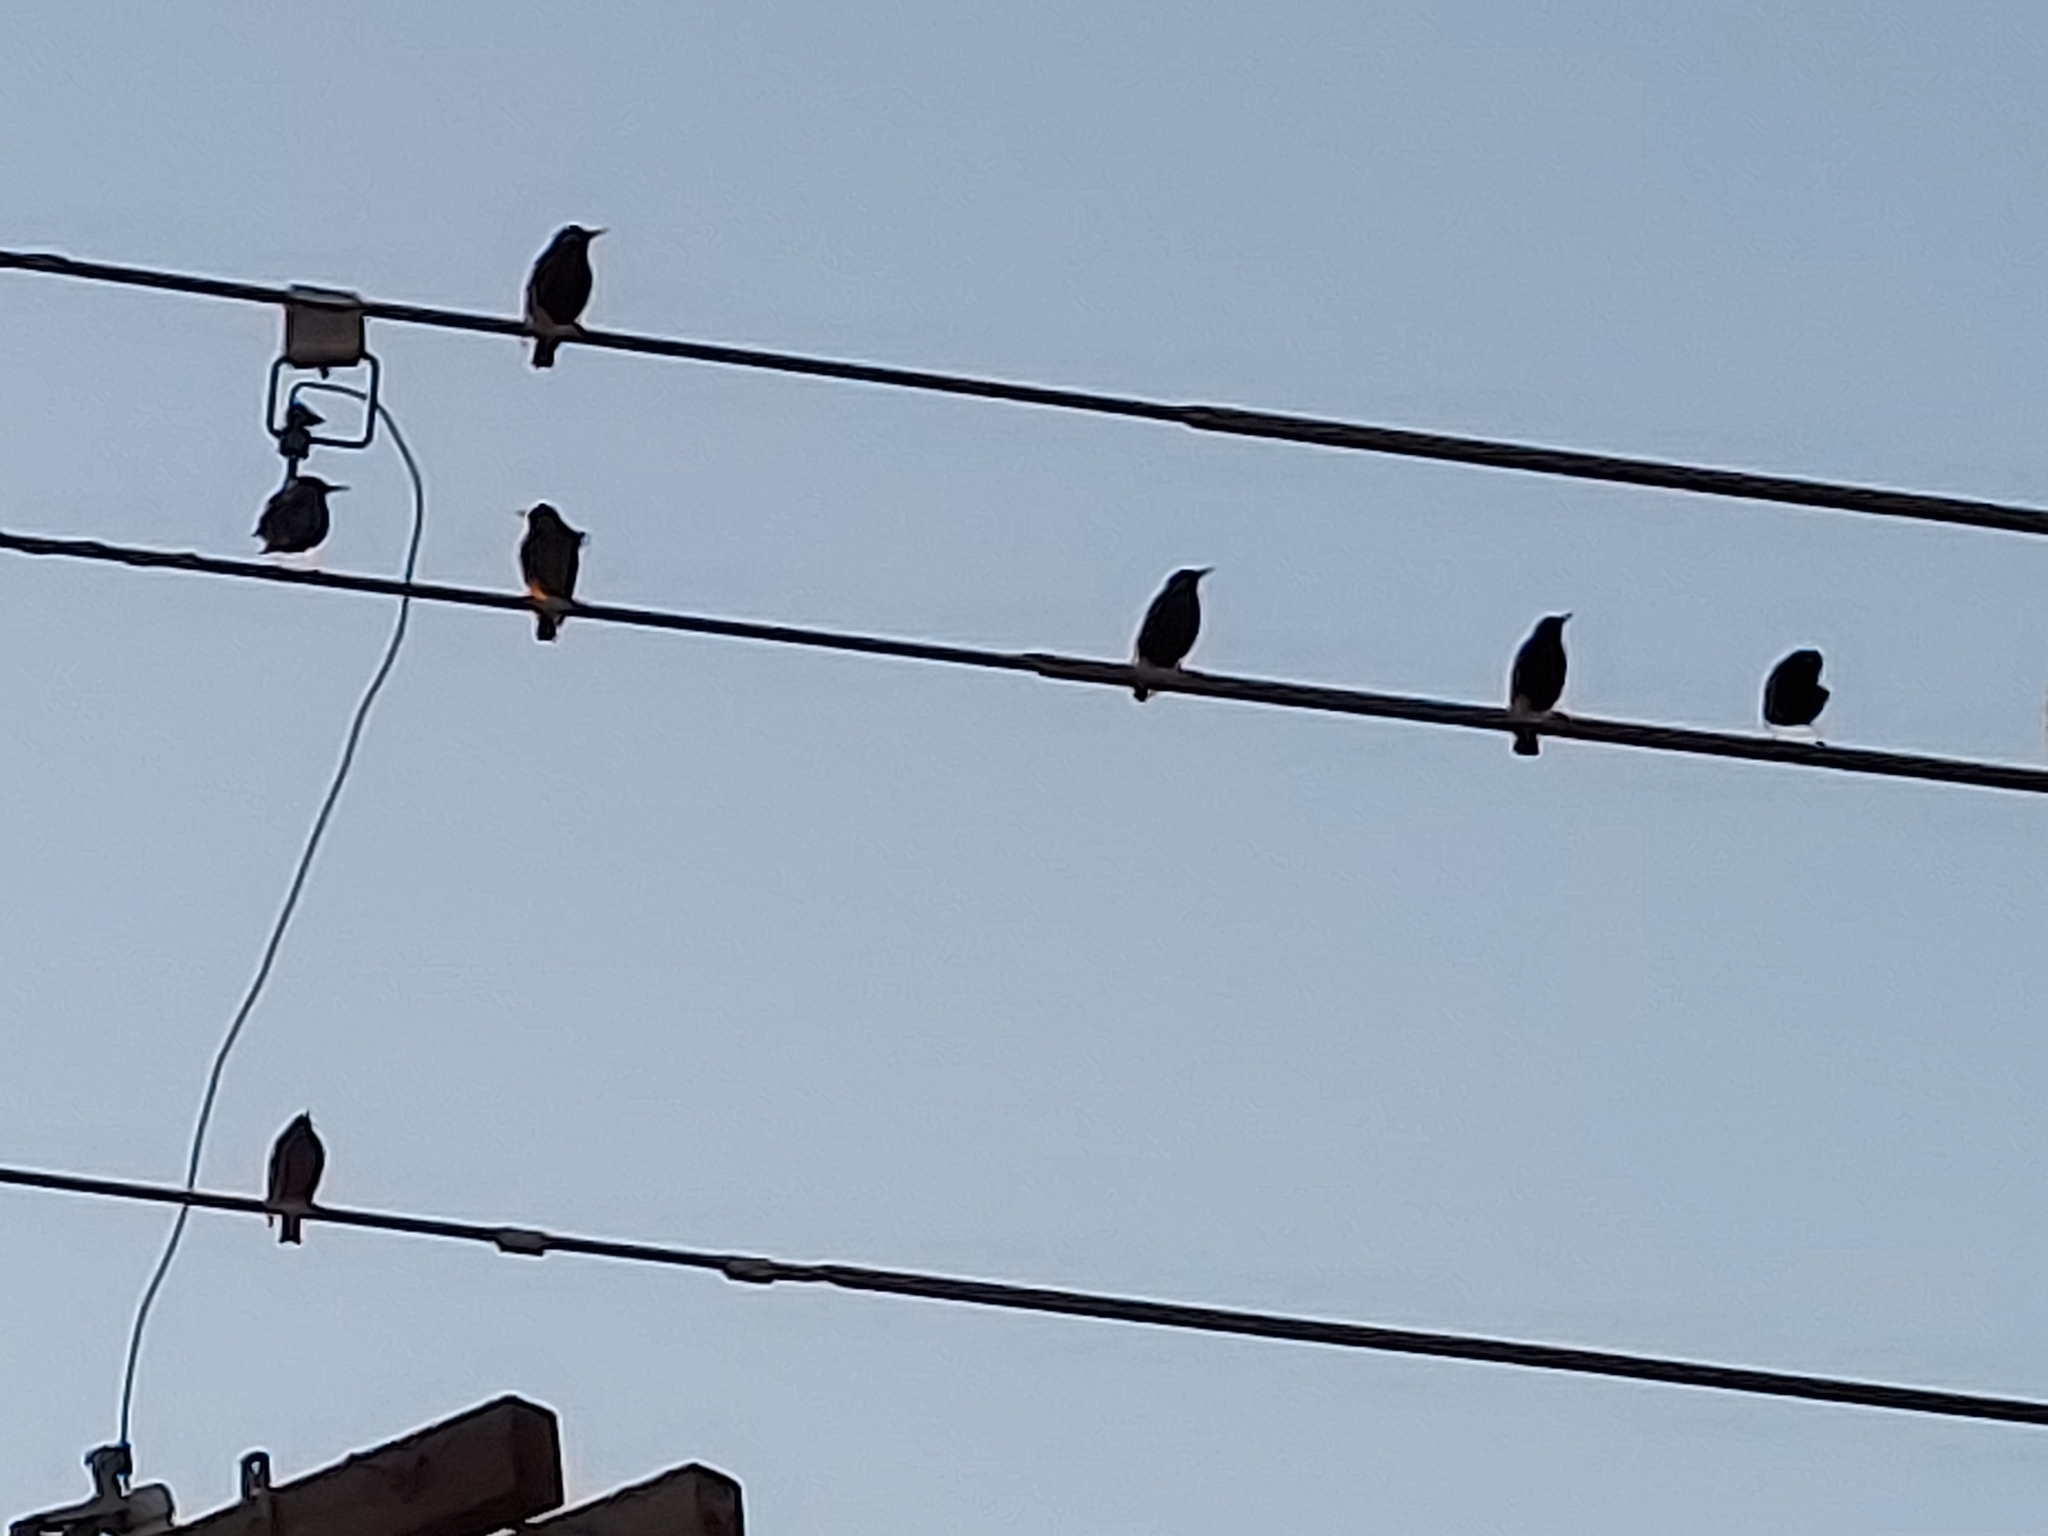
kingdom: Animalia
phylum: Chordata
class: Aves
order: Passeriformes
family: Sturnidae
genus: Sturnus
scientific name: Sturnus vulgaris
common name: Common starling
